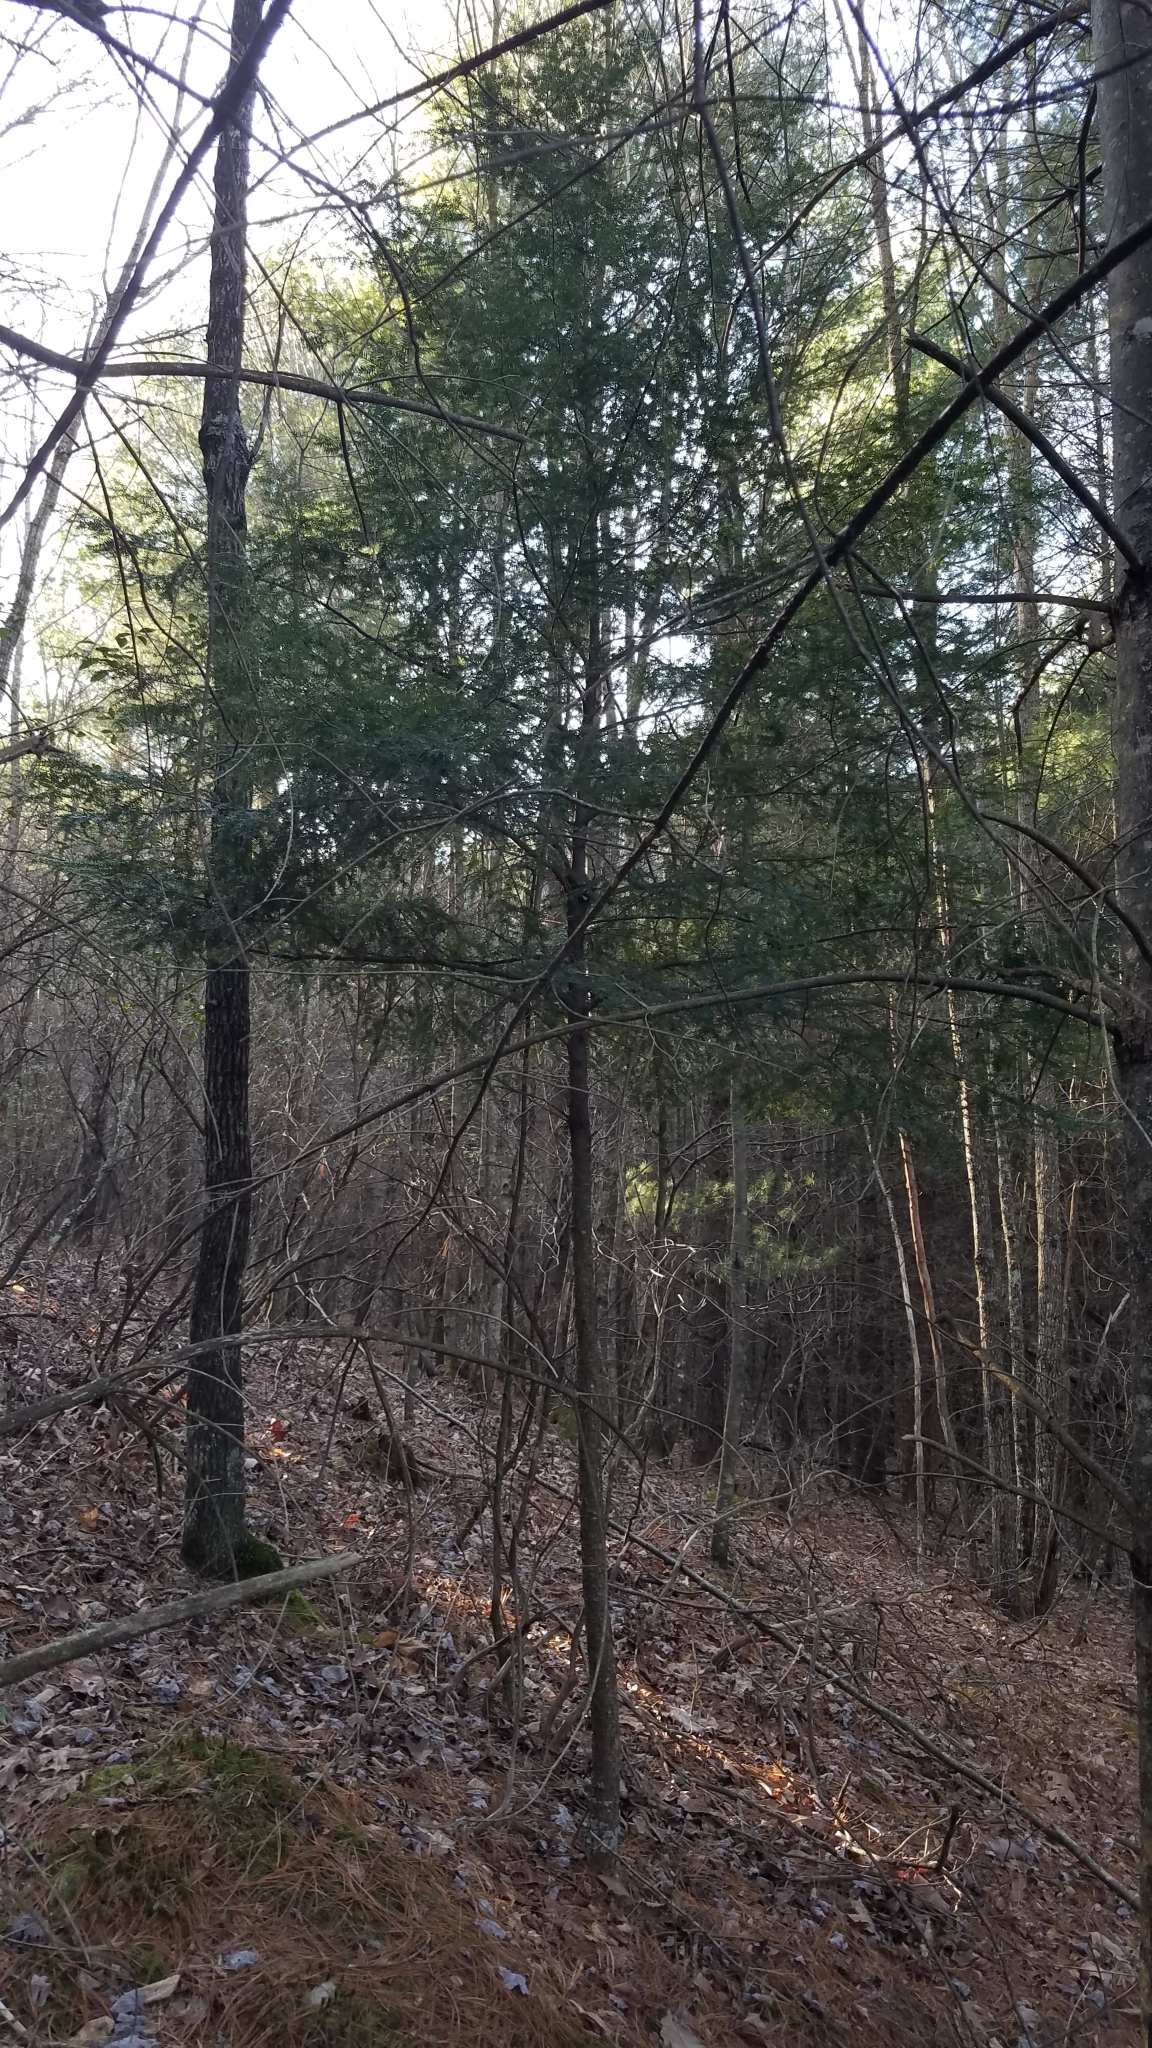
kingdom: Plantae
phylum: Tracheophyta
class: Pinopsida
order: Pinales
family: Pinaceae
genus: Tsuga
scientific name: Tsuga canadensis
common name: Eastern hemlock
